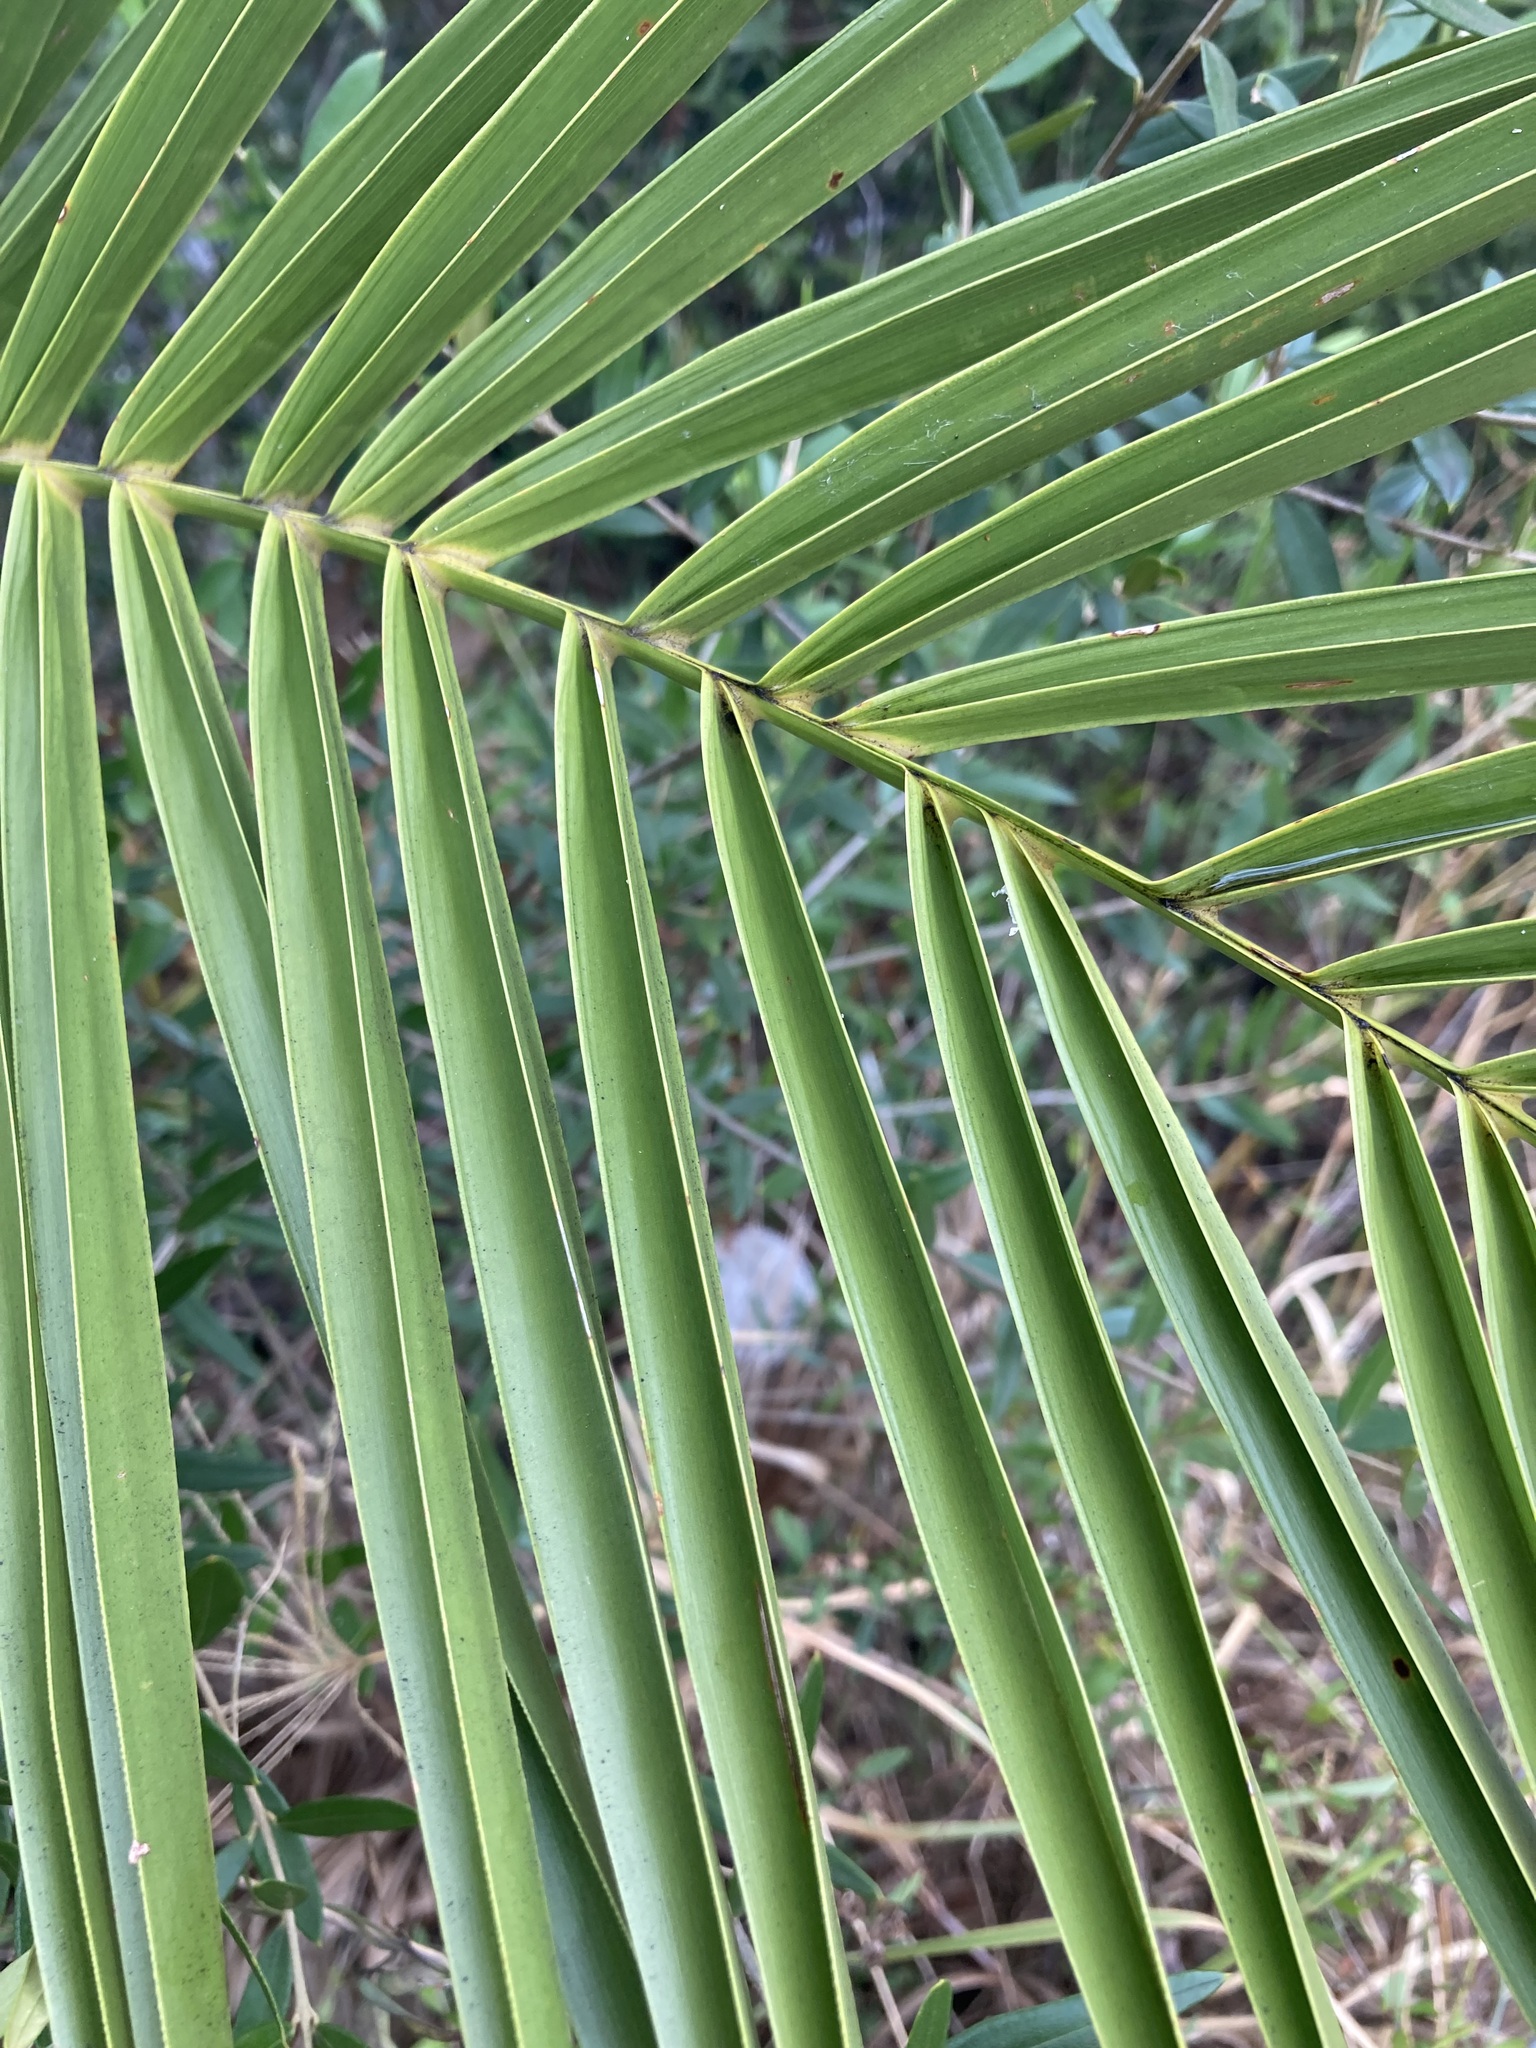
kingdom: Plantae
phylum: Tracheophyta
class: Liliopsida
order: Arecales
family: Arecaceae
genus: Phoenix
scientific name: Phoenix canariensis
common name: Canary island date palm
